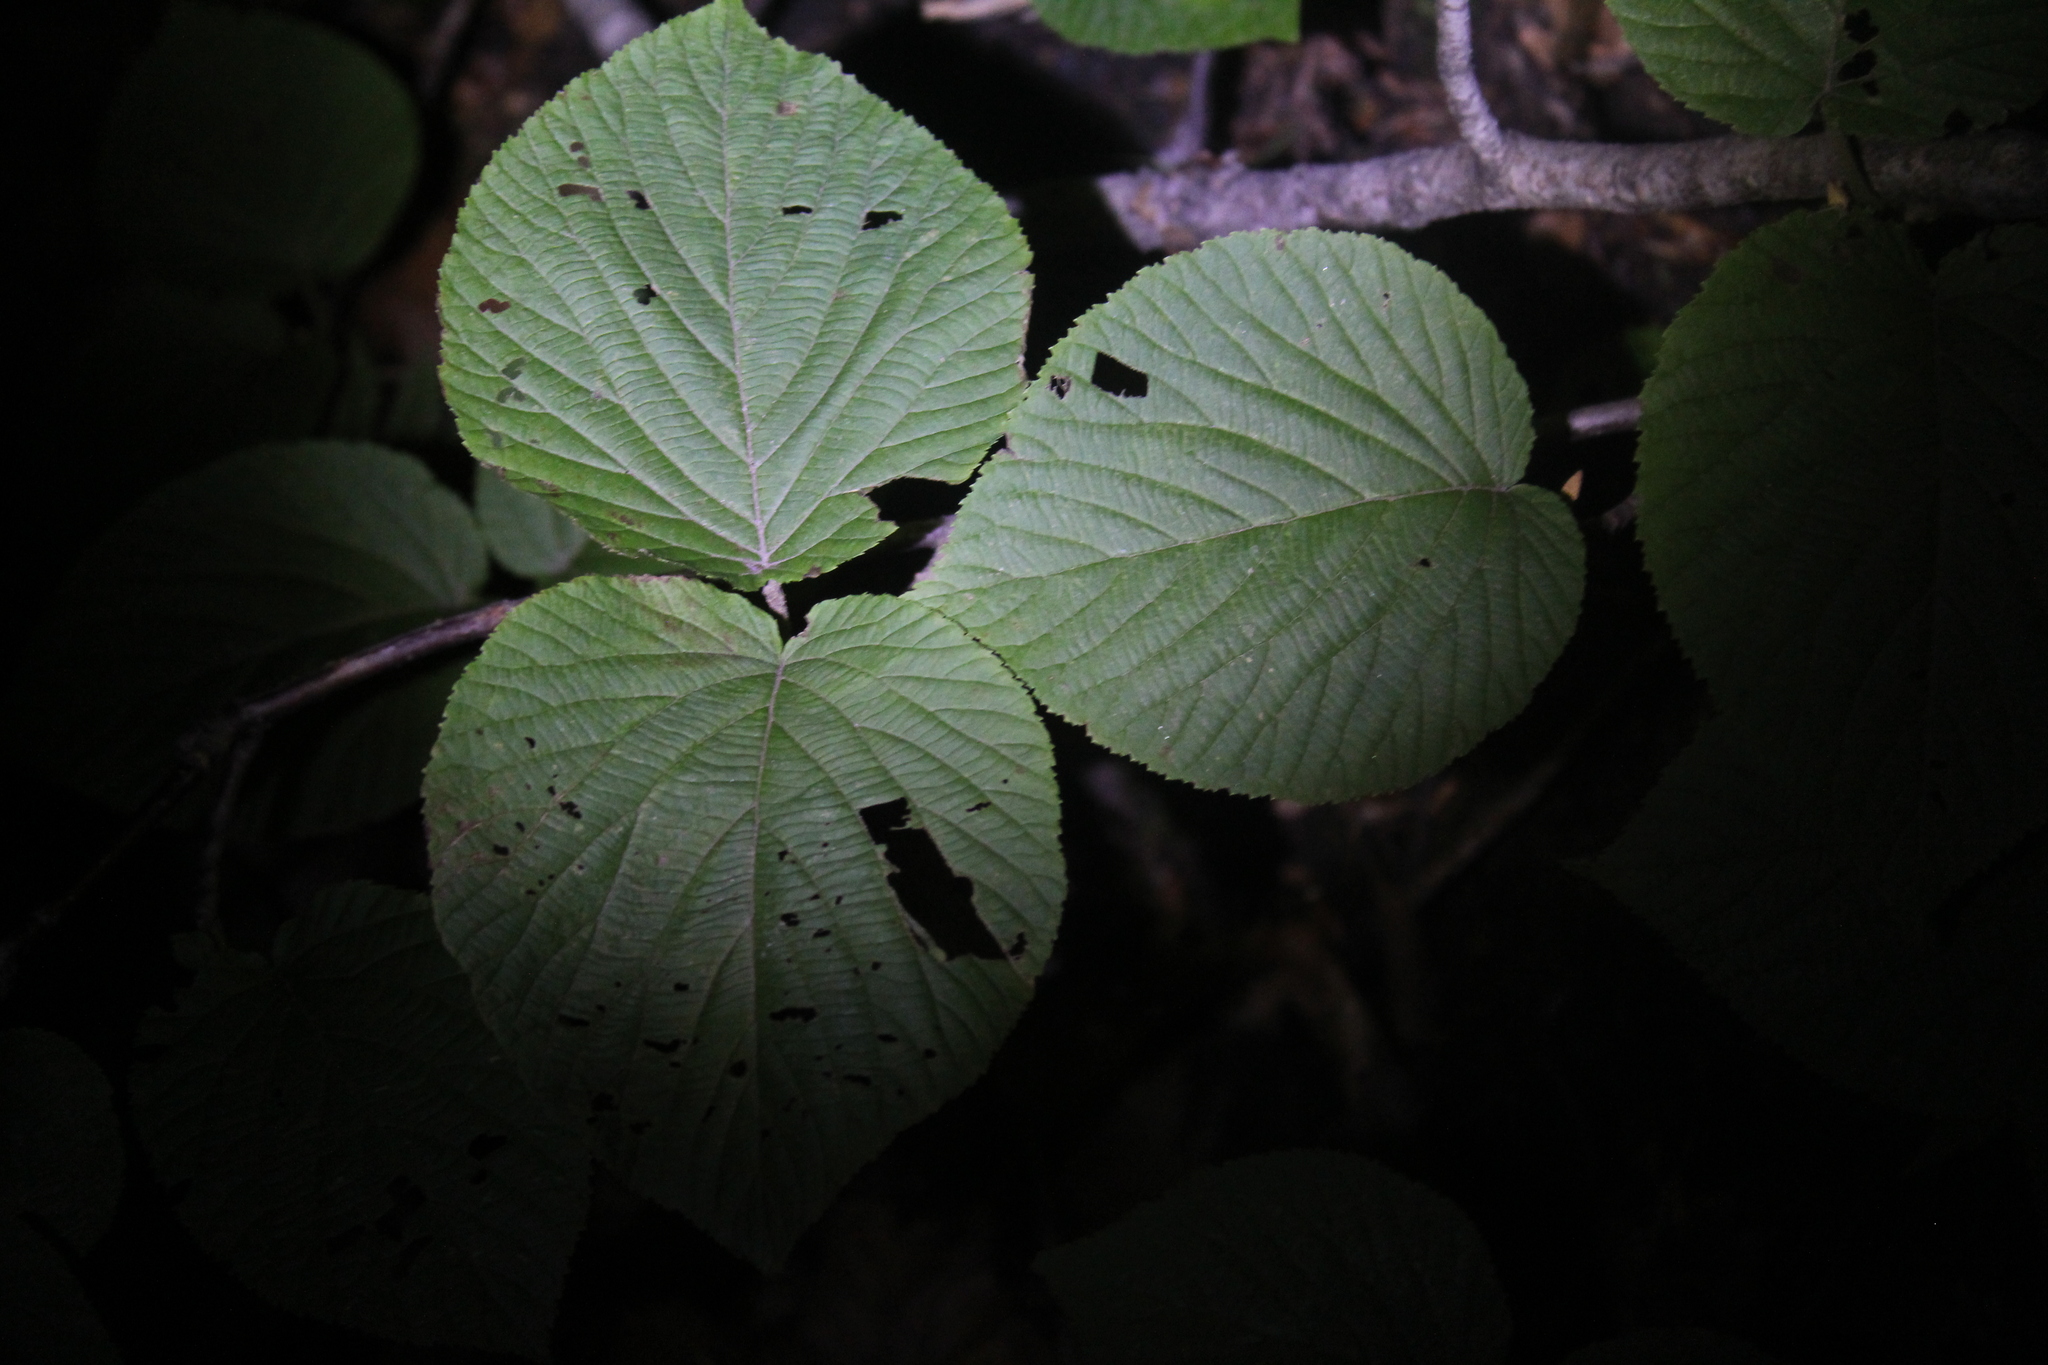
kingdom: Plantae
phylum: Tracheophyta
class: Magnoliopsida
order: Dipsacales
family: Viburnaceae
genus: Viburnum
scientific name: Viburnum lantanoides
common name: Hobblebush
